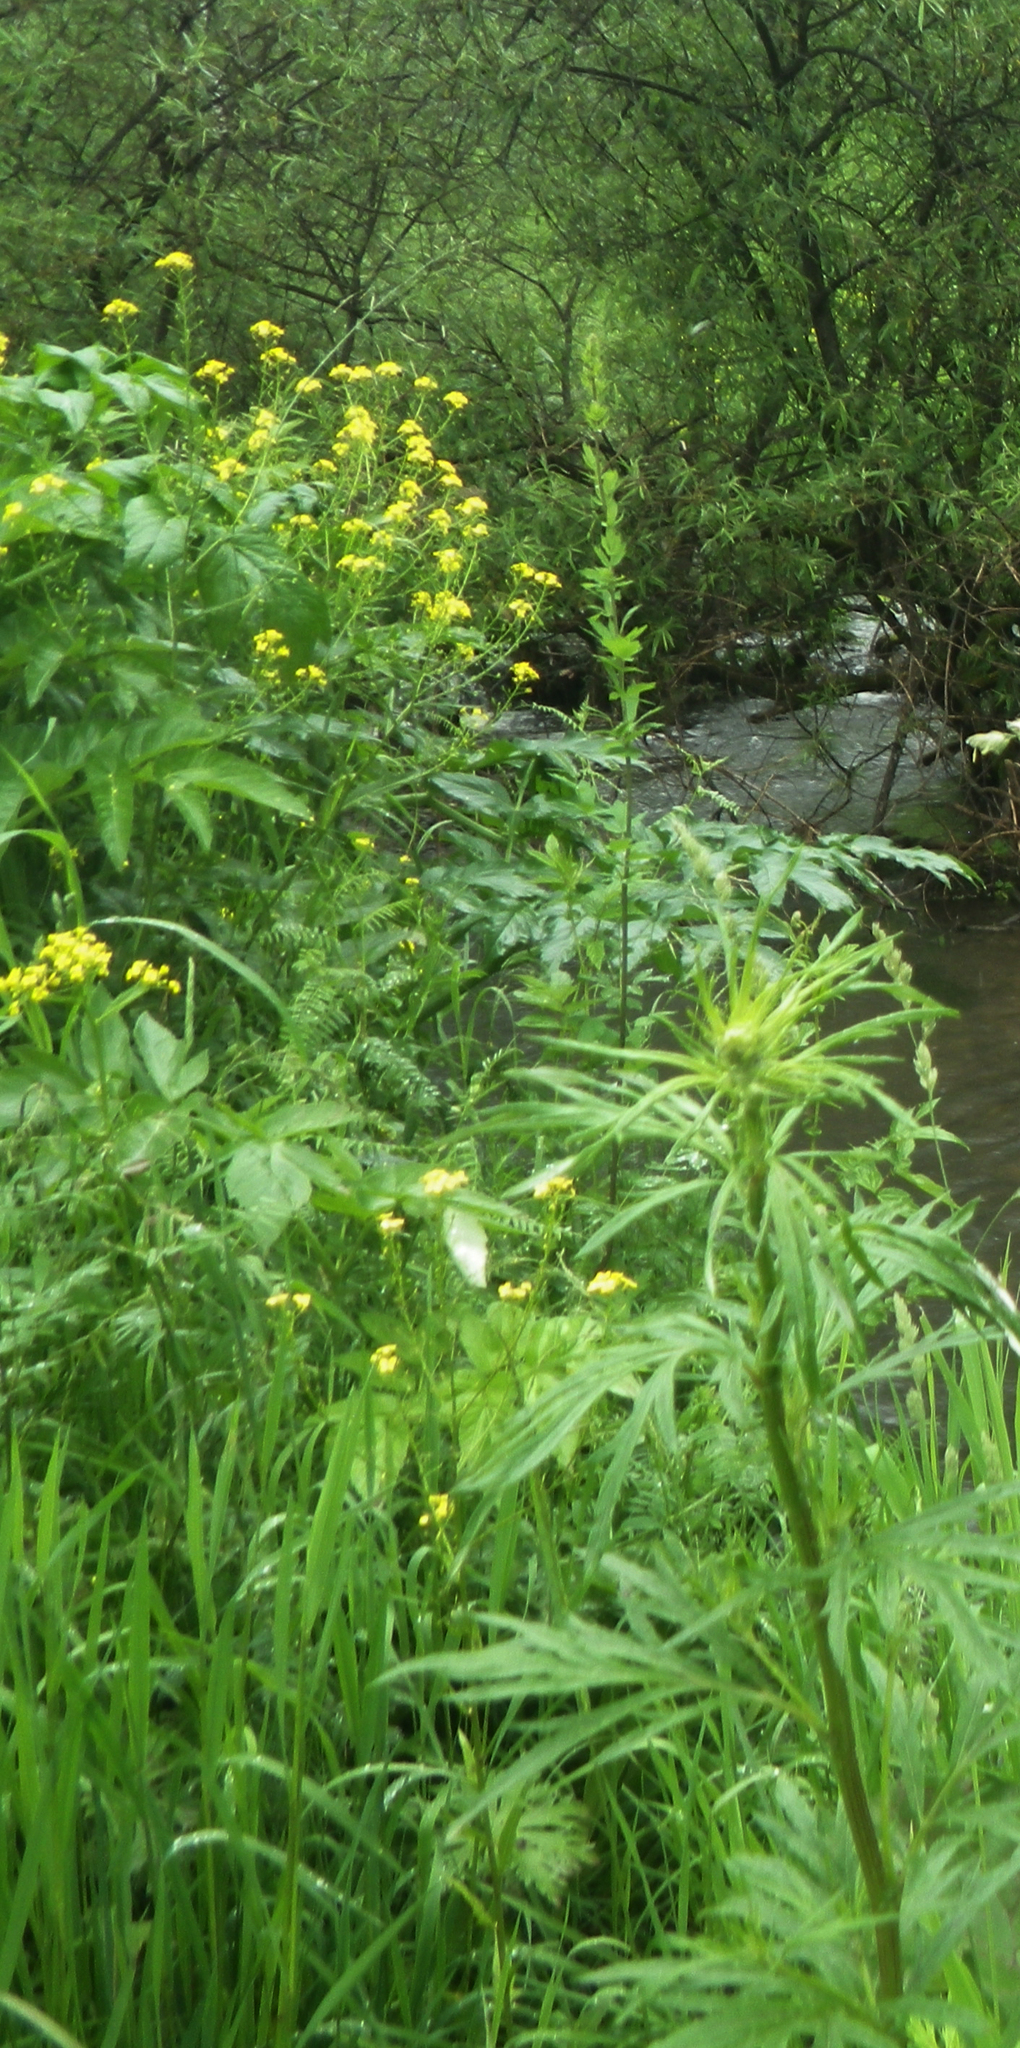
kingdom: Plantae
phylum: Tracheophyta
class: Magnoliopsida
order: Brassicales
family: Brassicaceae
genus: Bunias
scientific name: Bunias orientalis
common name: Warty-cabbage
